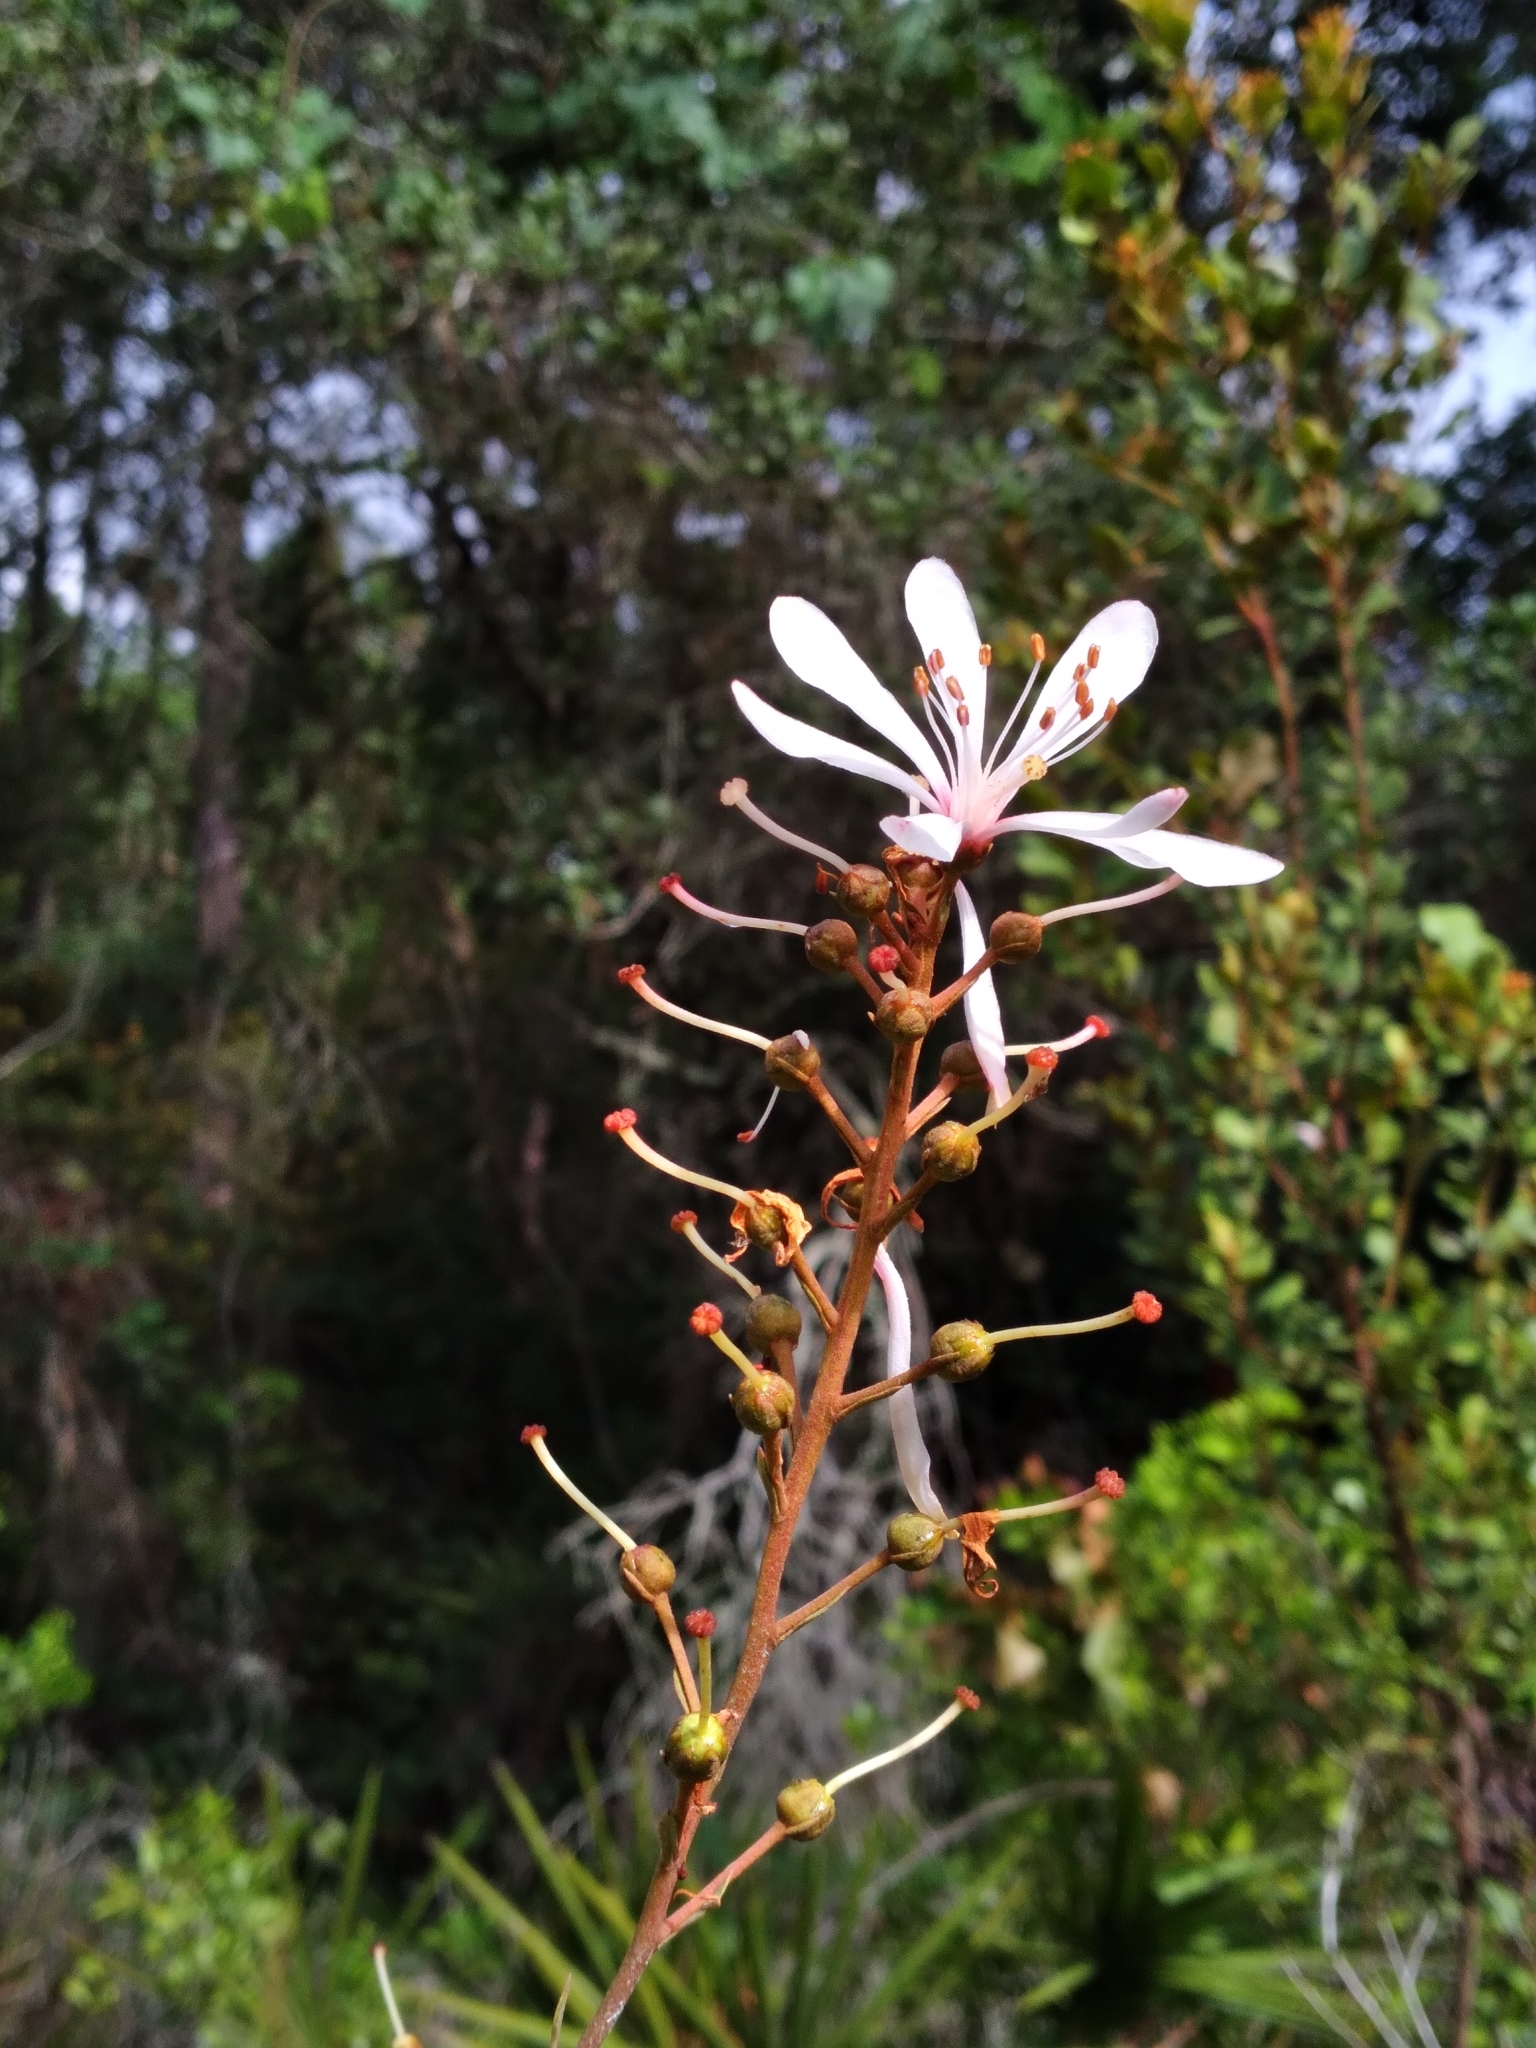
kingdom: Plantae
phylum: Tracheophyta
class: Magnoliopsida
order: Ericales
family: Ericaceae
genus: Bejaria
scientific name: Bejaria racemosa
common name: Tarflower
